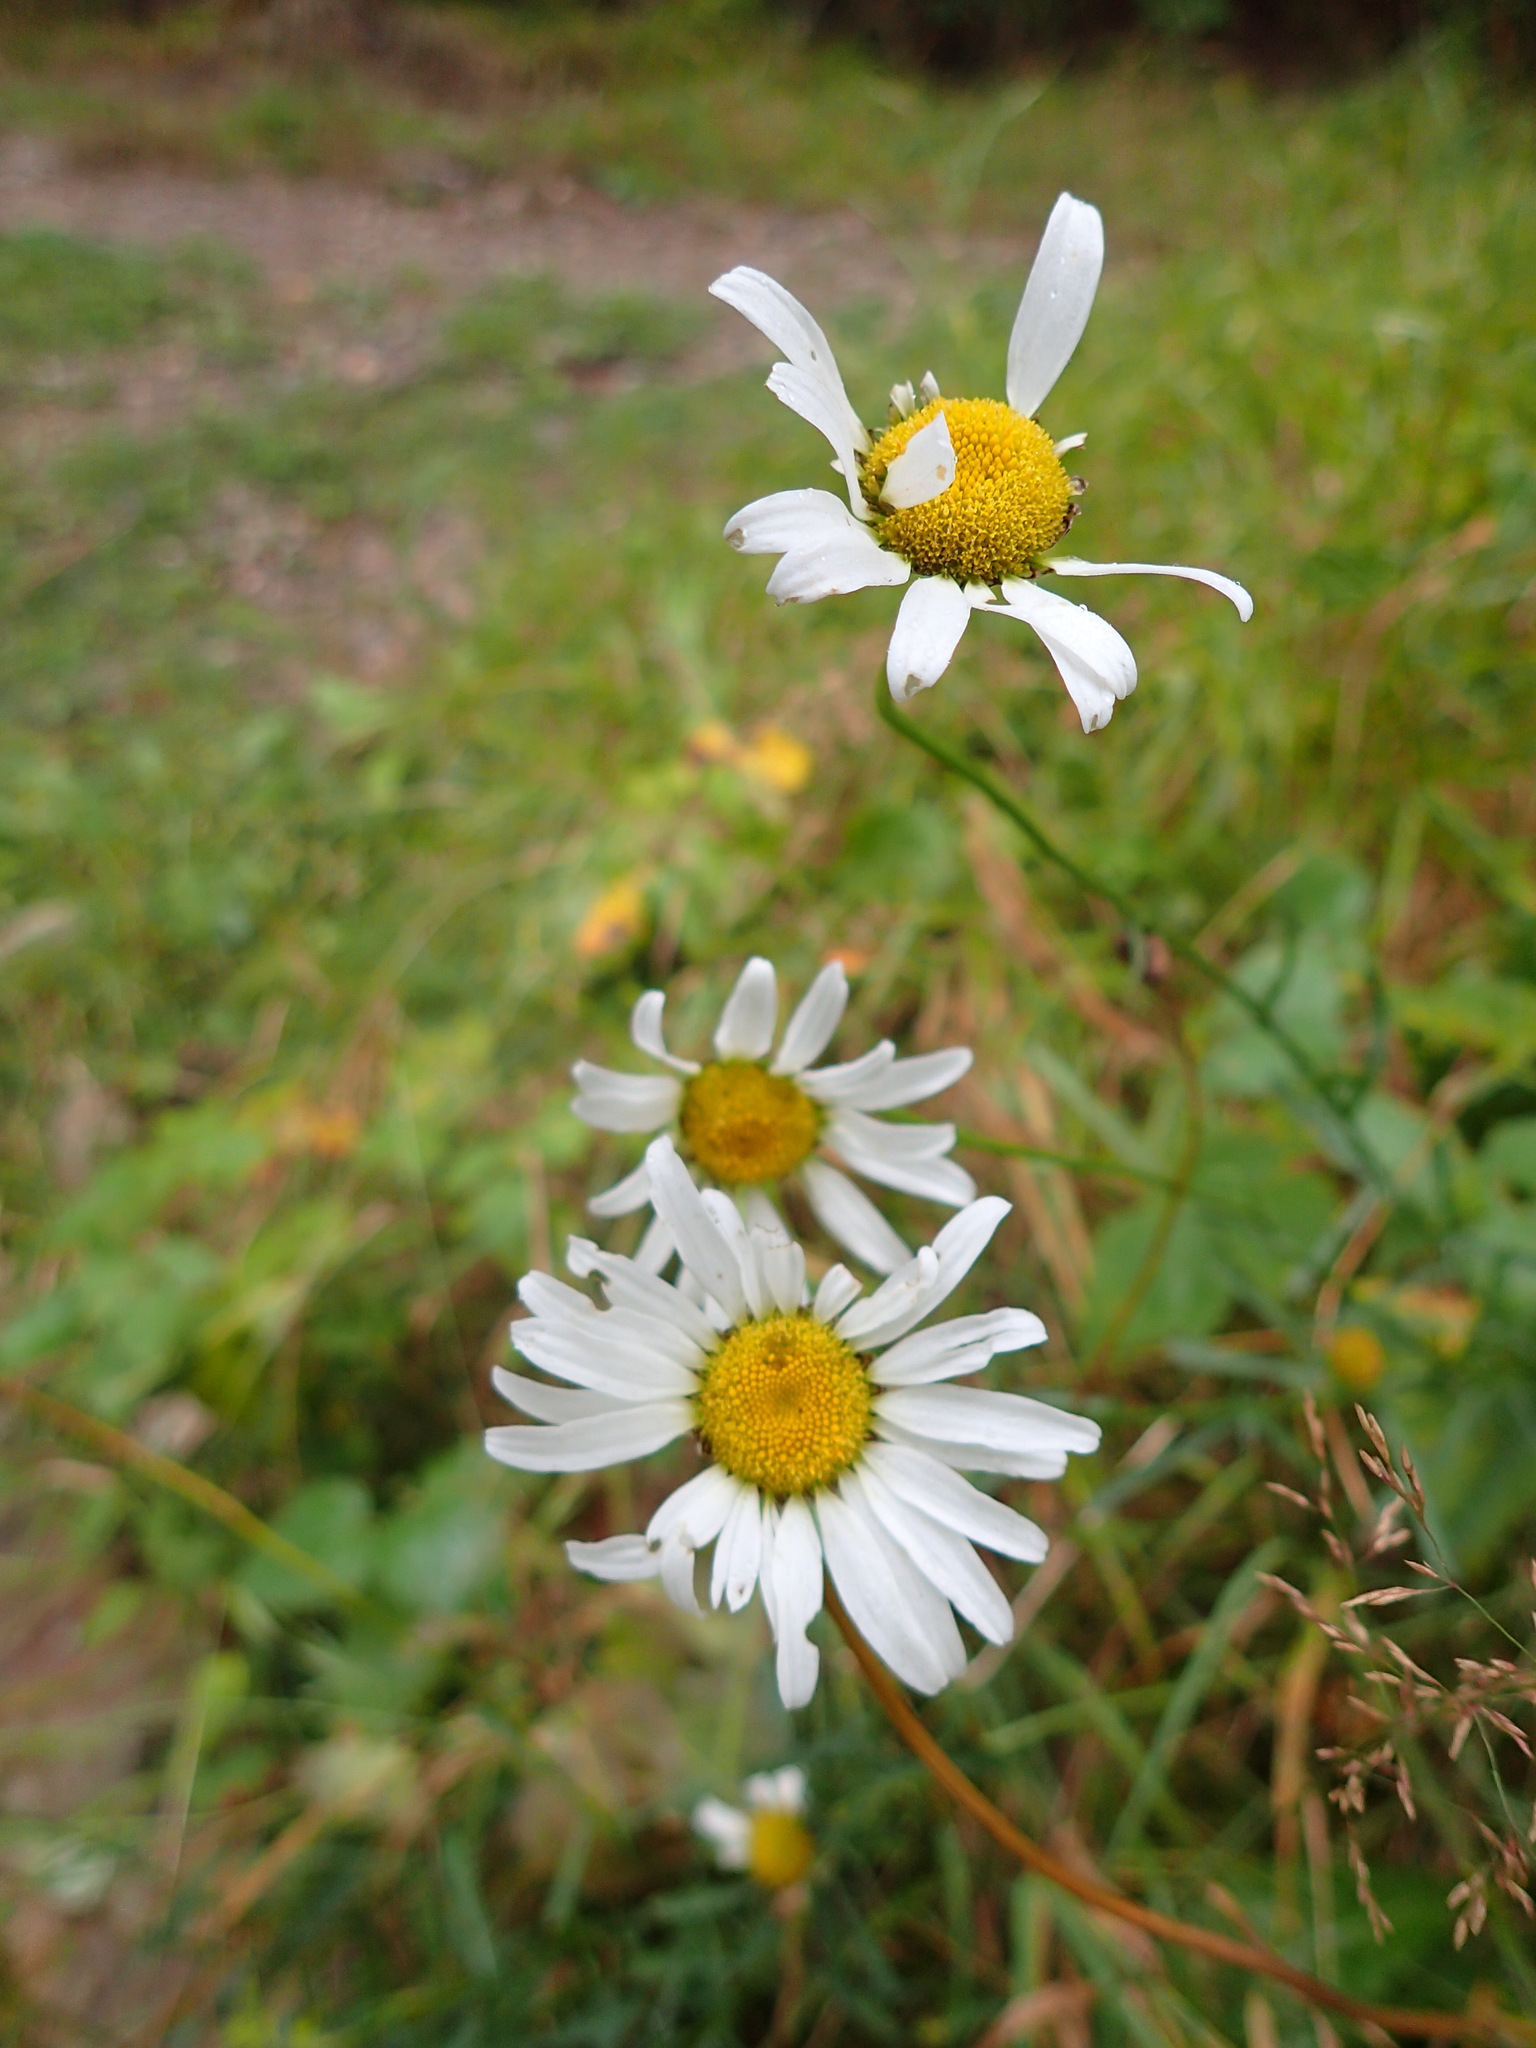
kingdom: Plantae
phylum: Tracheophyta
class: Magnoliopsida
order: Asterales
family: Asteraceae
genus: Leucanthemum
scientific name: Leucanthemum vulgare
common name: Oxeye daisy
